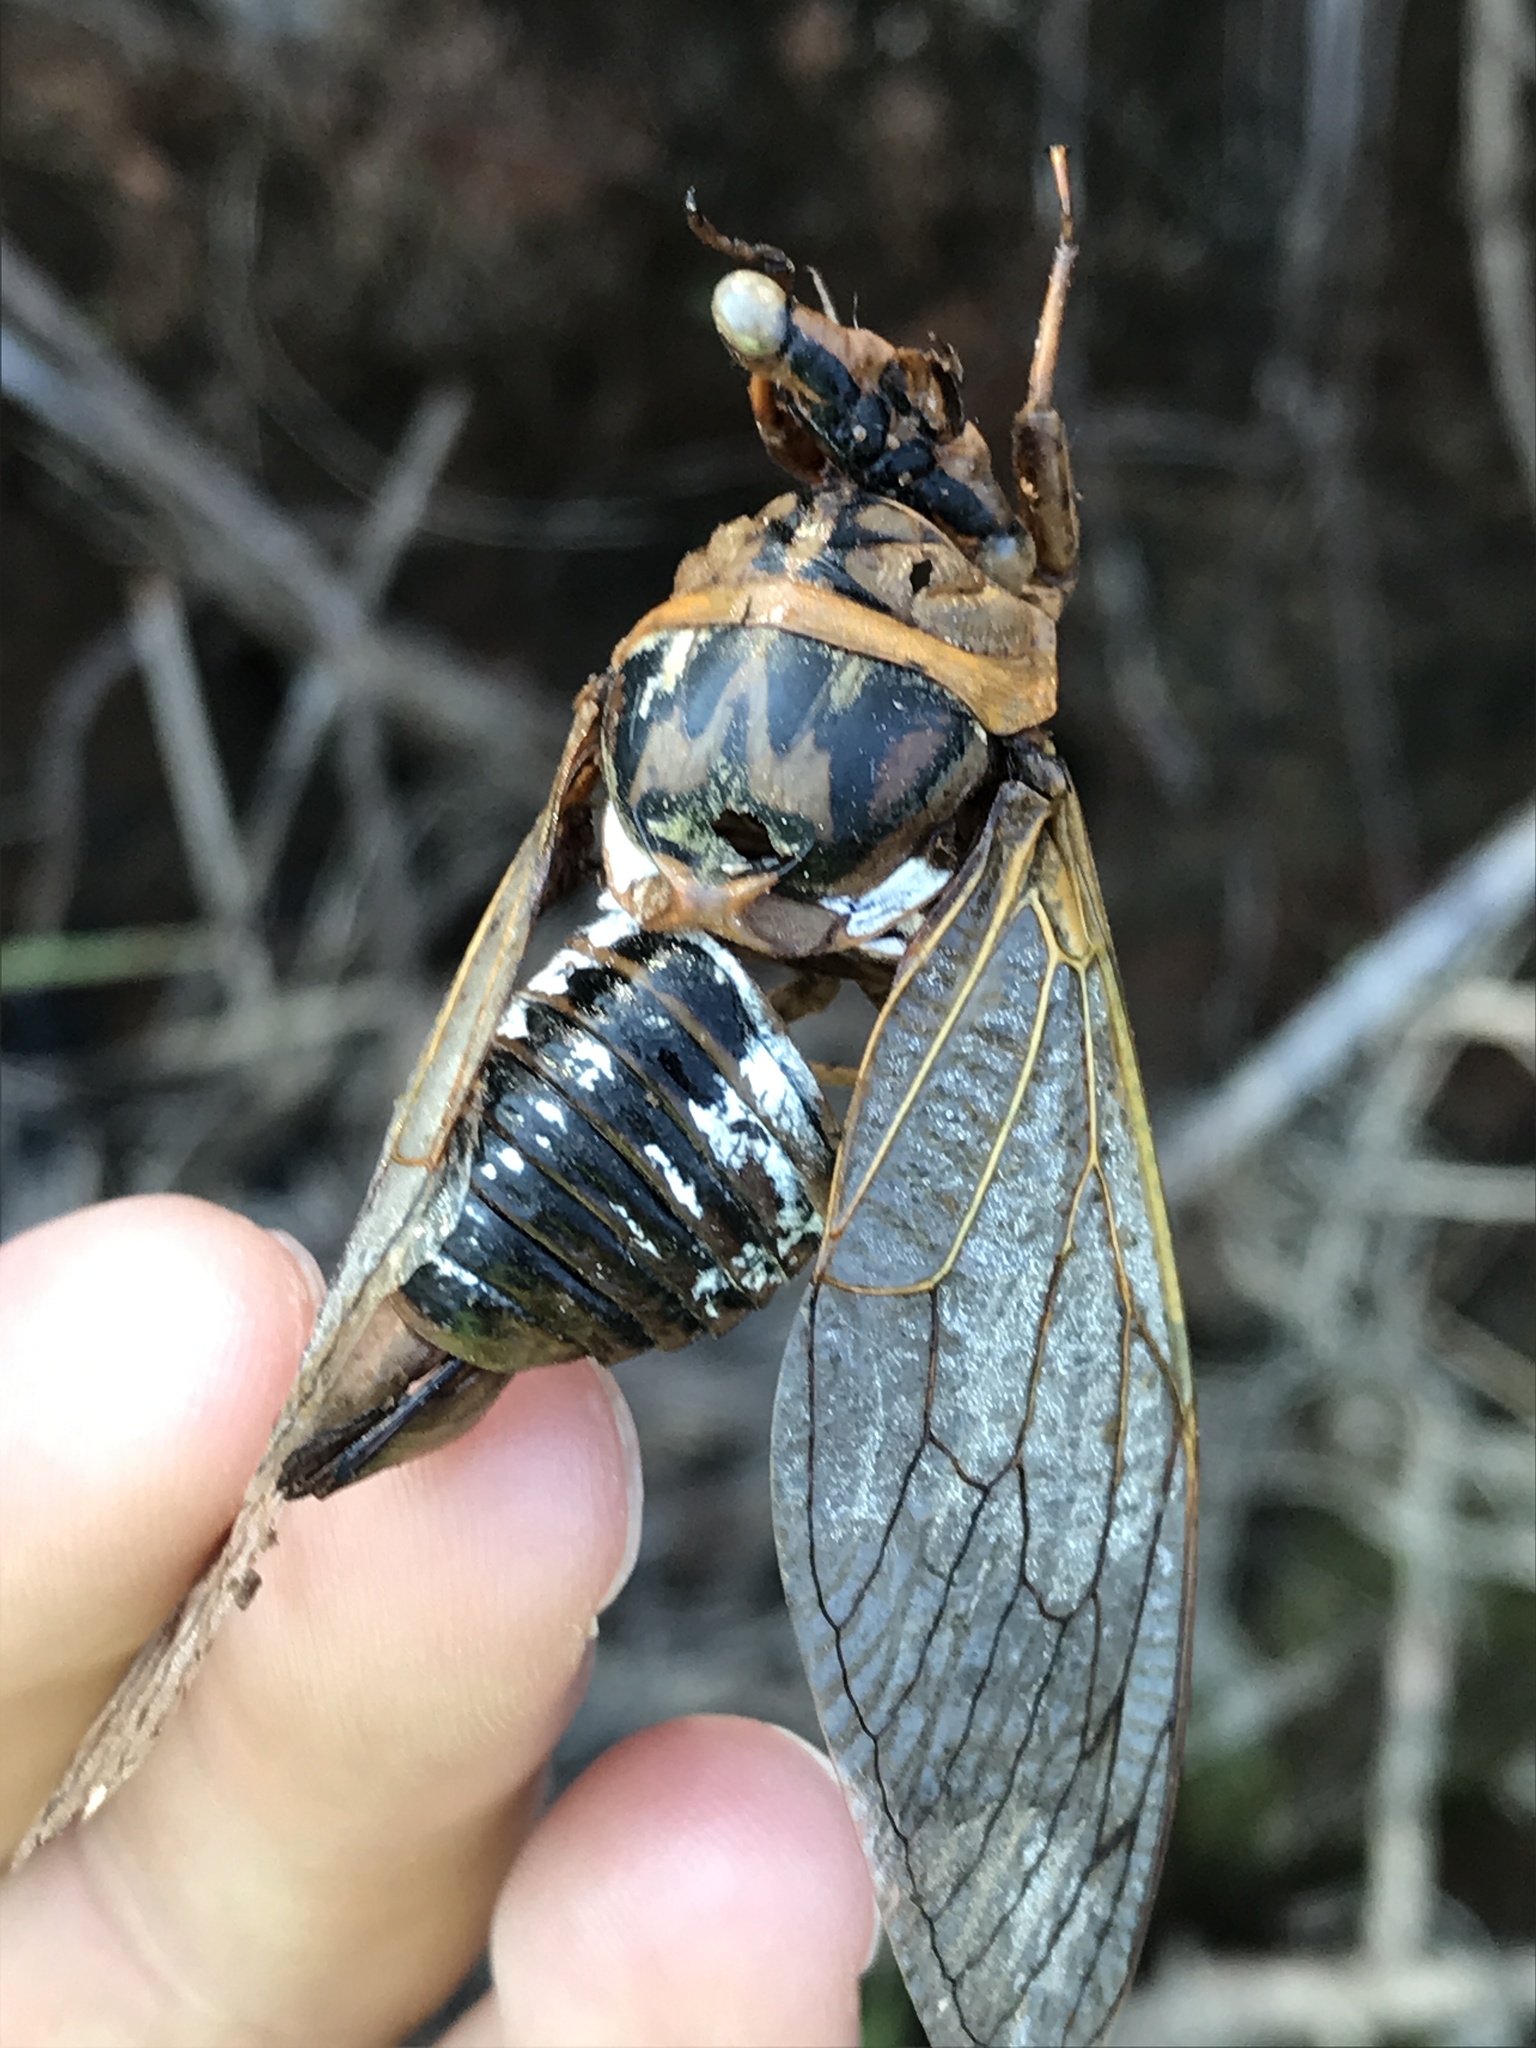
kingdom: Animalia
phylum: Arthropoda
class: Insecta
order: Hemiptera
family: Cicadidae
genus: Megatibicen
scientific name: Megatibicen dorsatus
